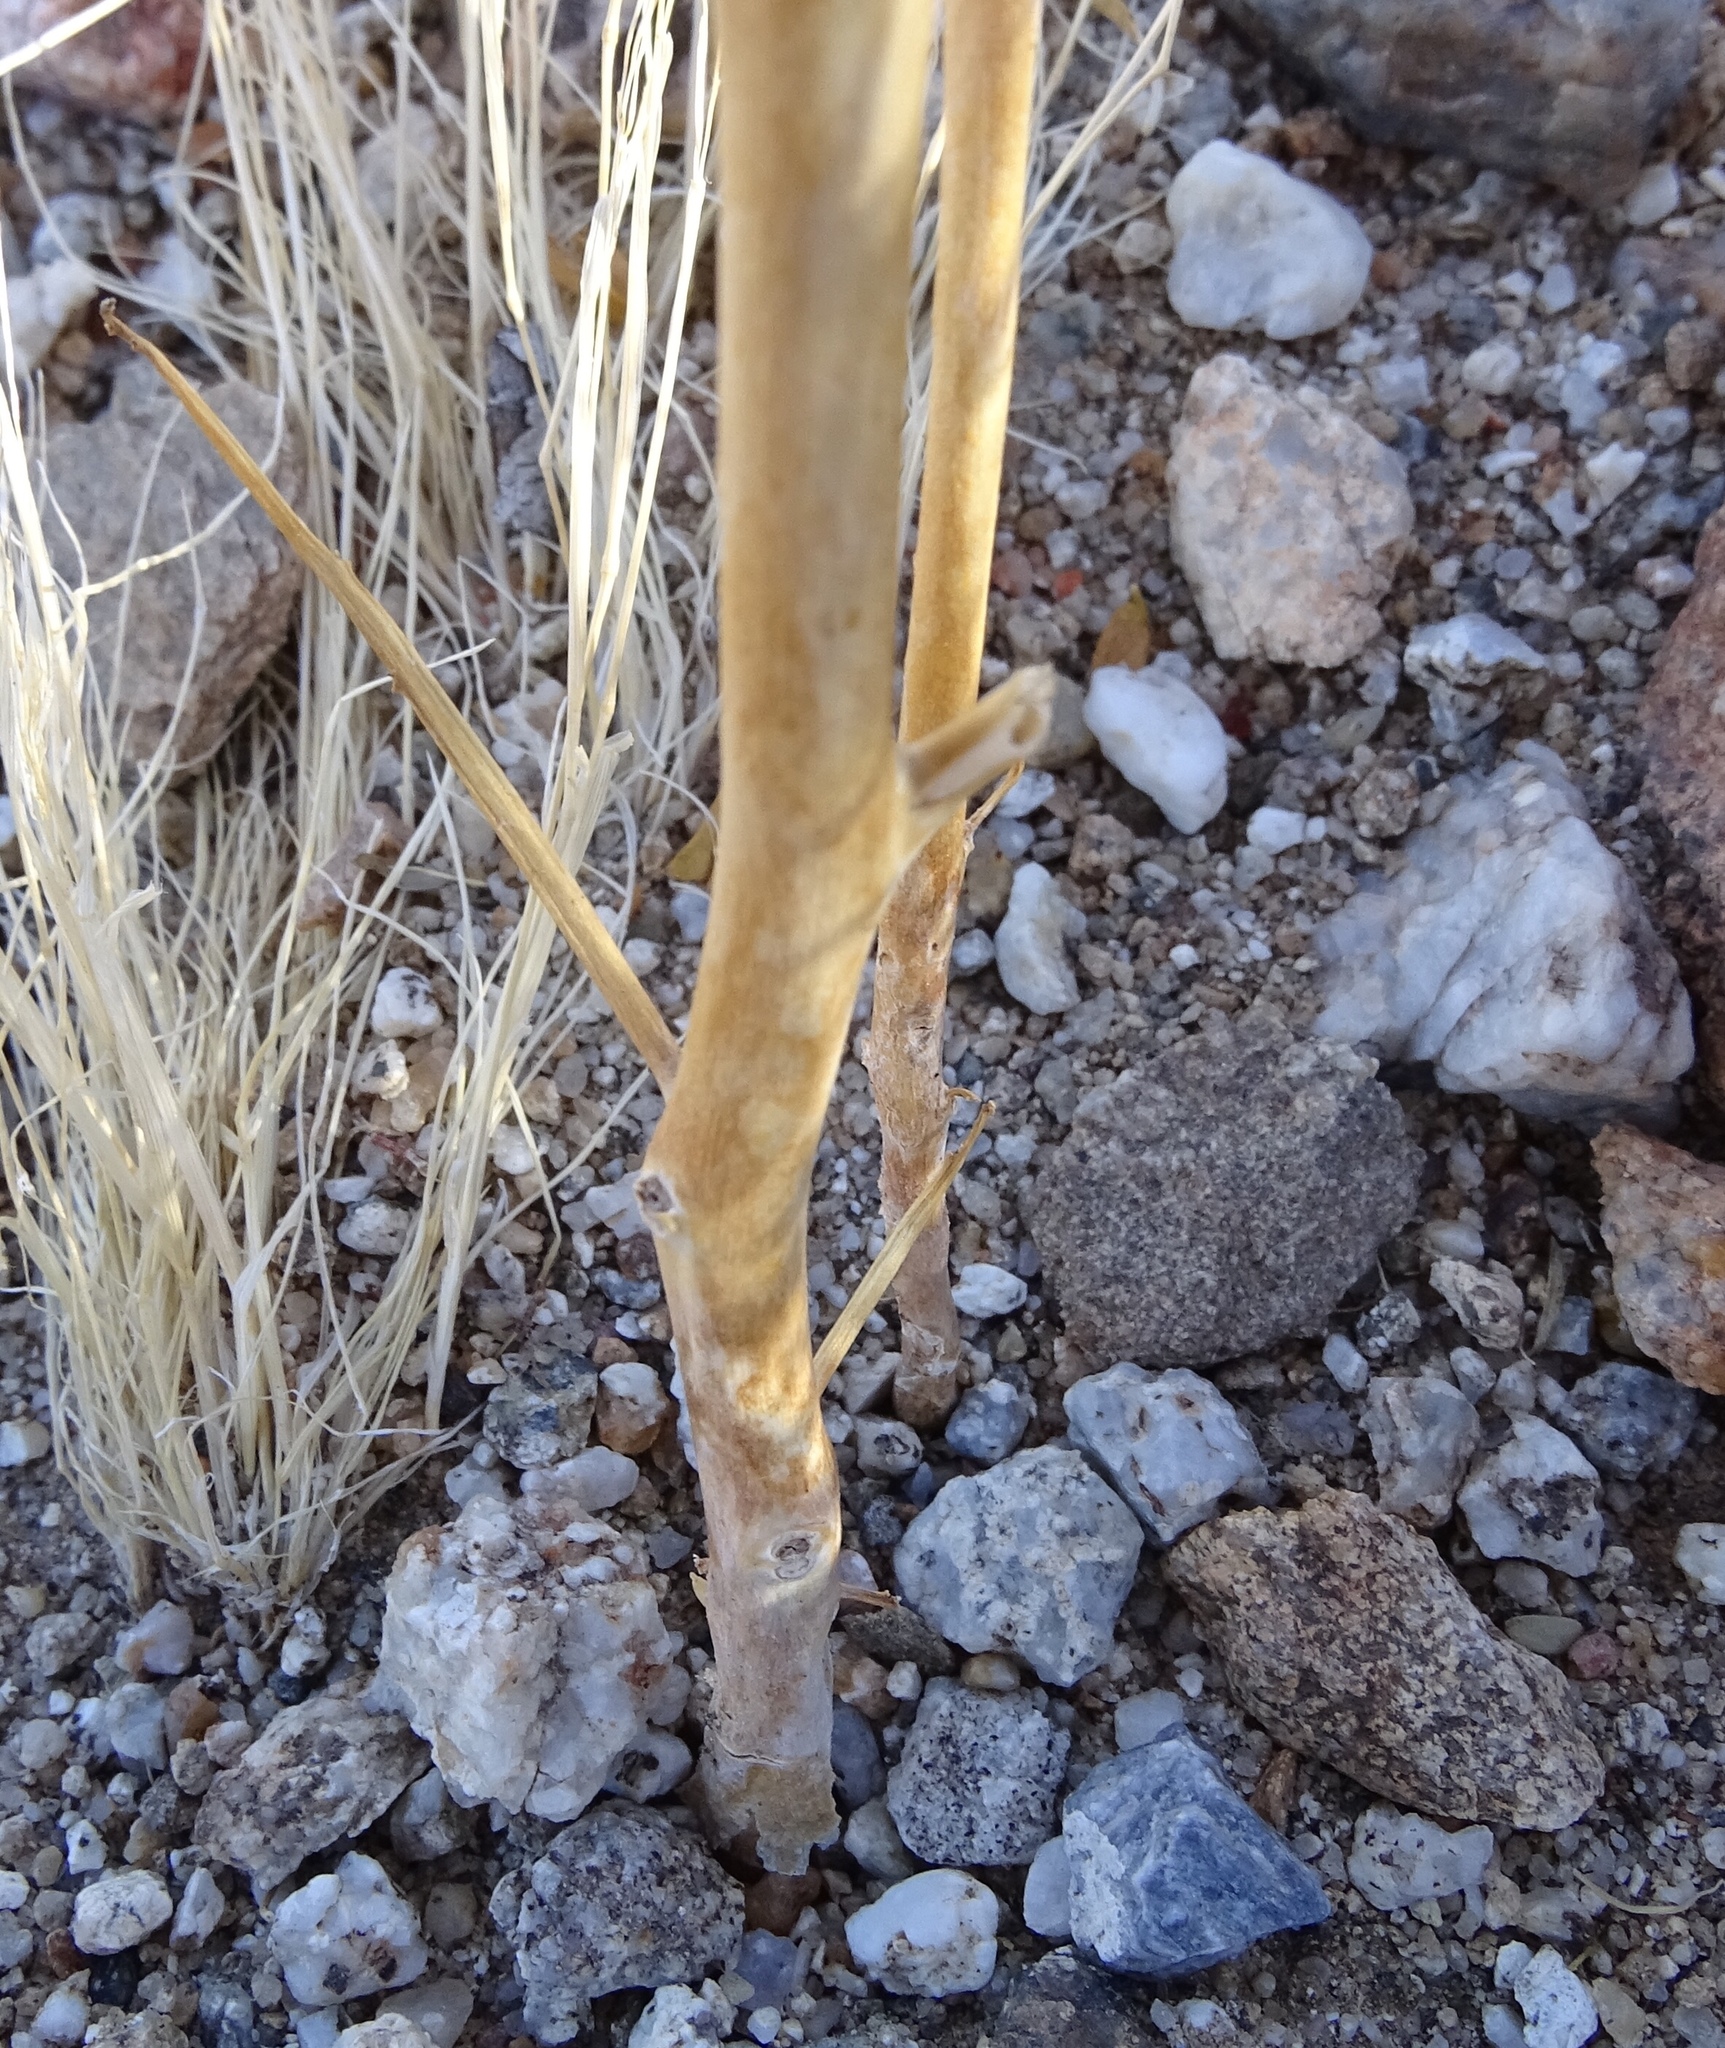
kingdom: Plantae
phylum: Tracheophyta
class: Magnoliopsida
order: Myrtales
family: Onagraceae
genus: Eulobus
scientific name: Eulobus californicus
